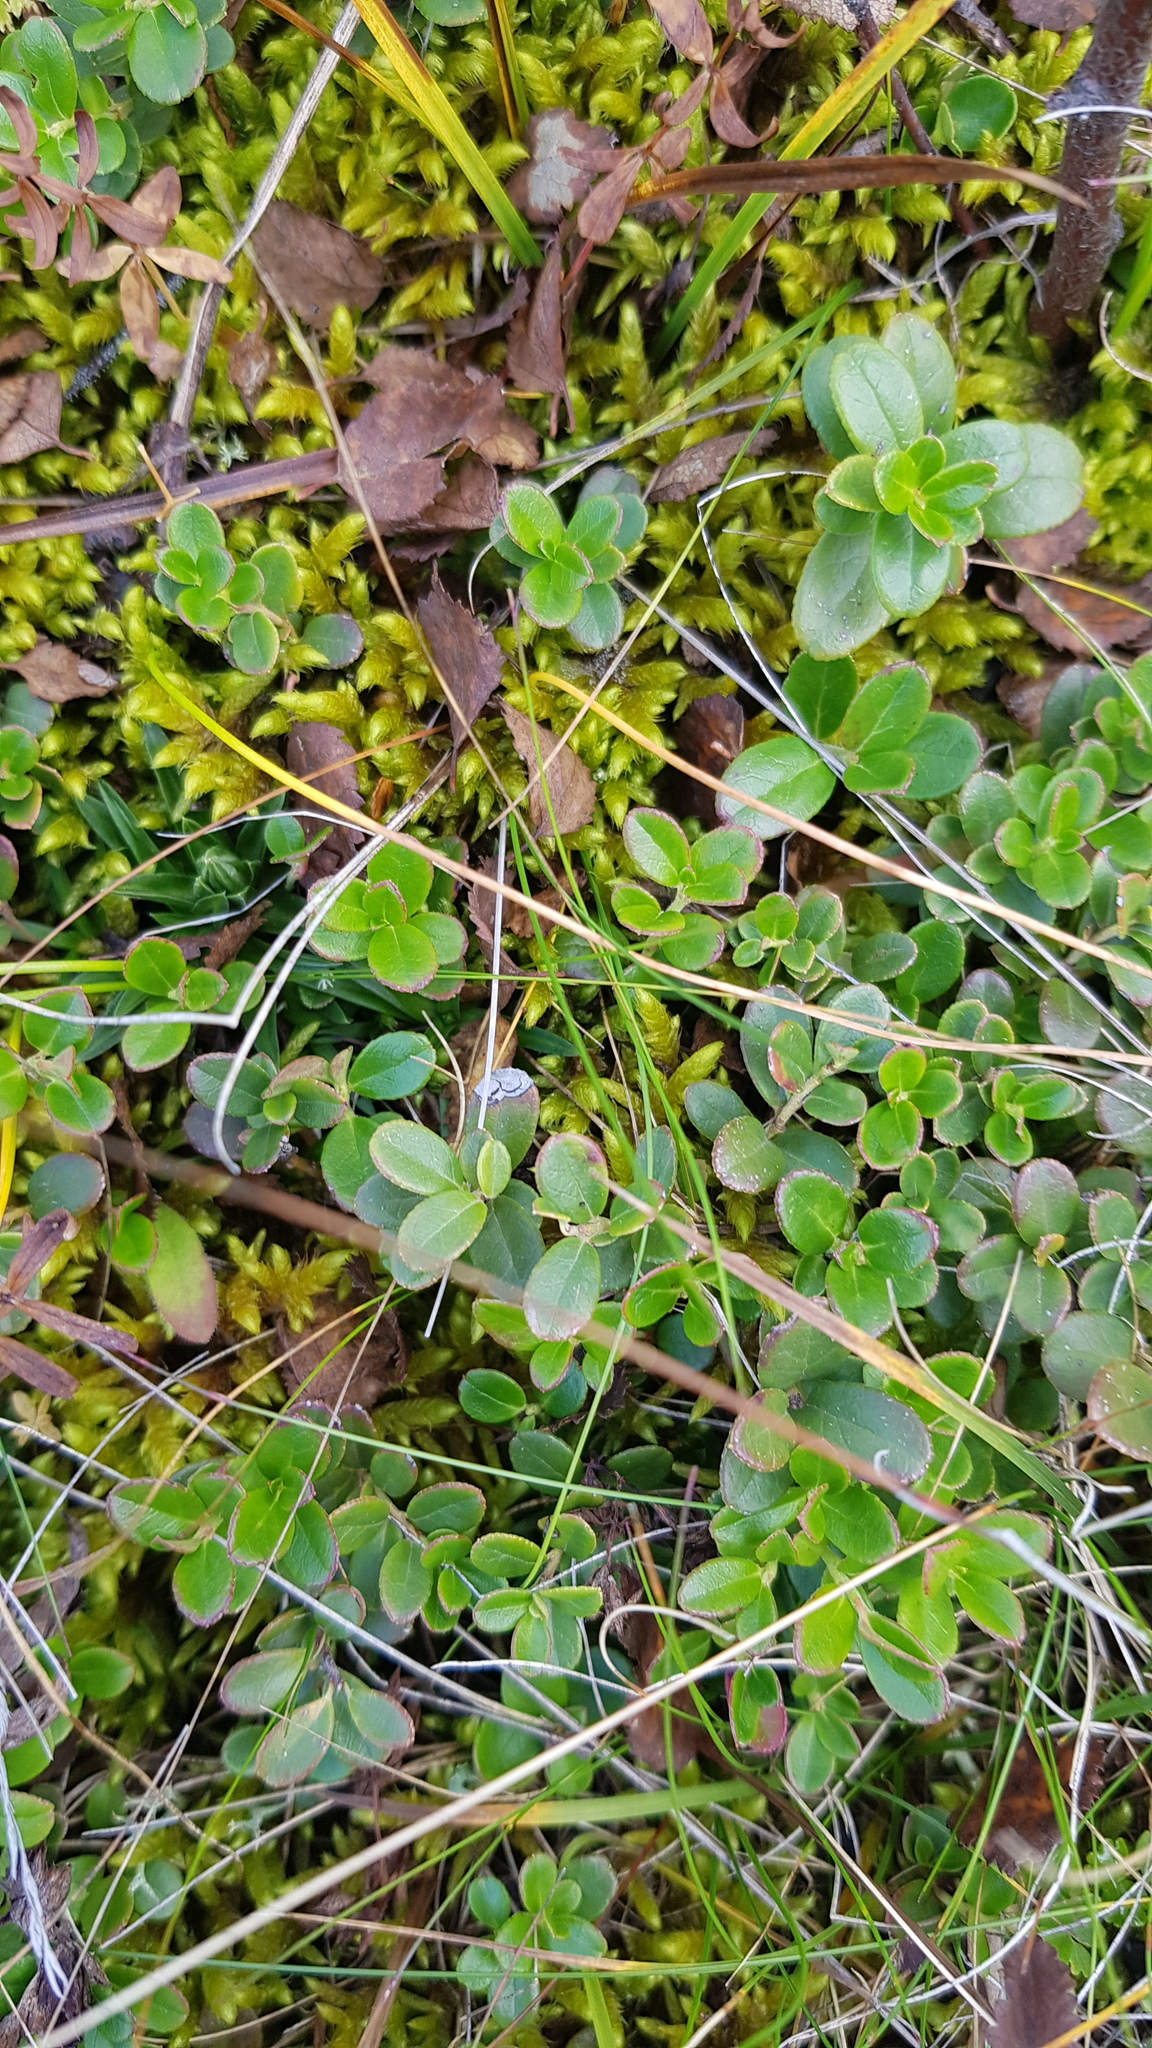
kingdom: Plantae
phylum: Tracheophyta
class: Magnoliopsida
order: Ericales
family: Ericaceae
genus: Vaccinium
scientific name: Vaccinium vitis-idaea
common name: Cowberry
